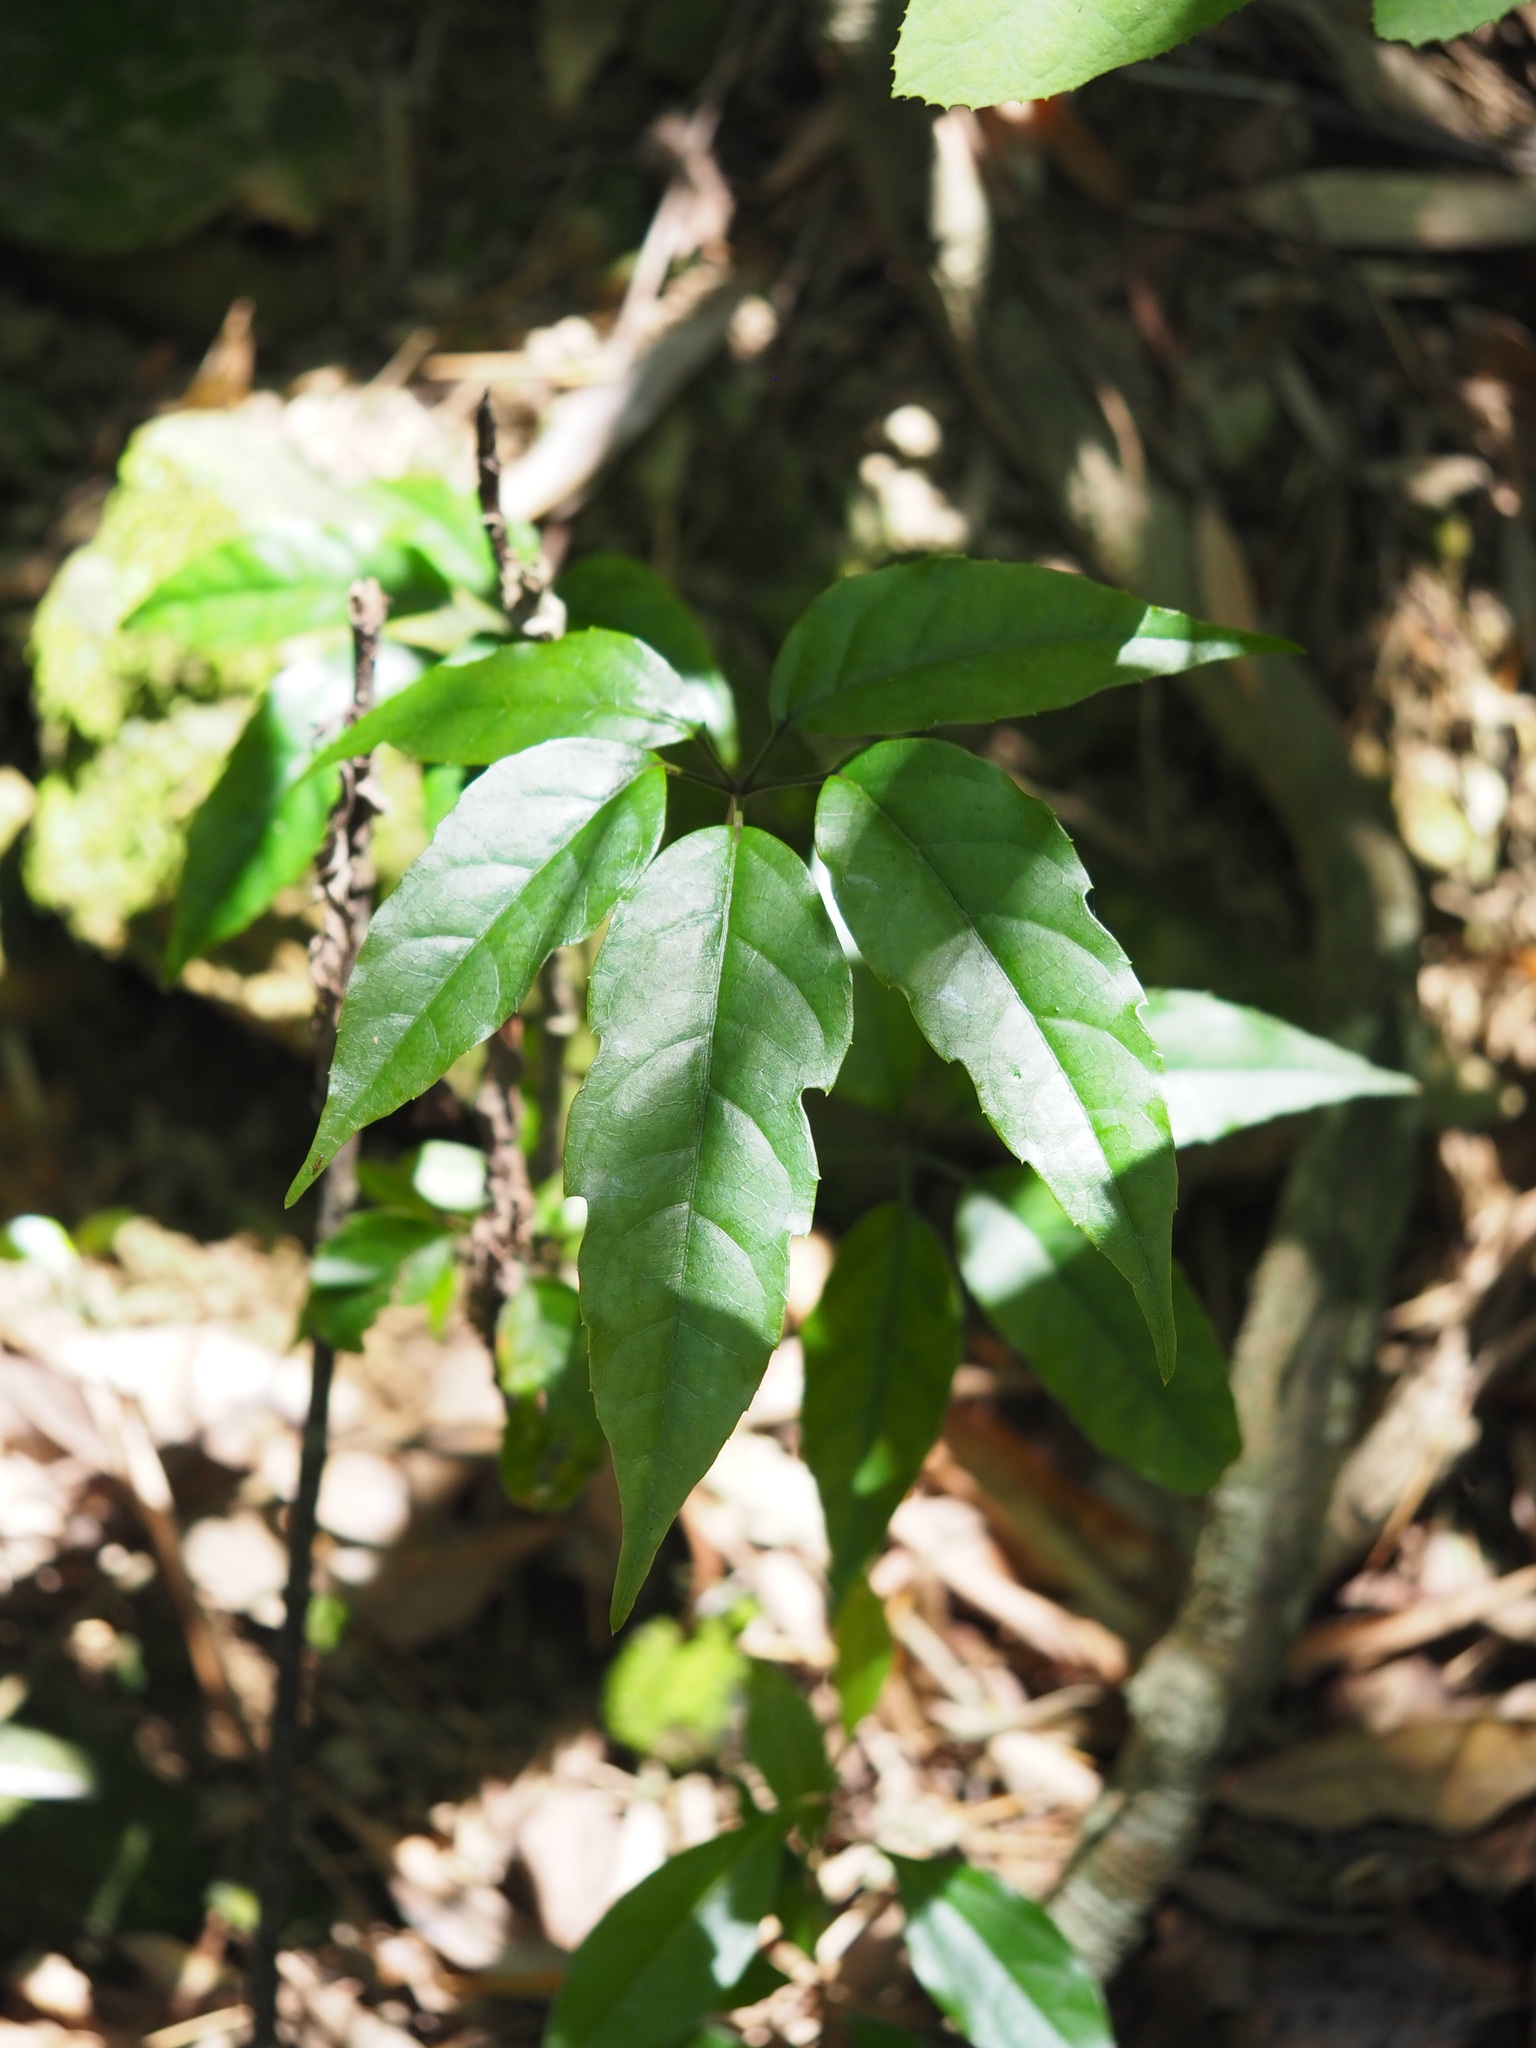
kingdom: Plantae
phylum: Tracheophyta
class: Magnoliopsida
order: Apiales
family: Araliaceae
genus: Heptapleurum
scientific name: Heptapleurum heptaphyllum
